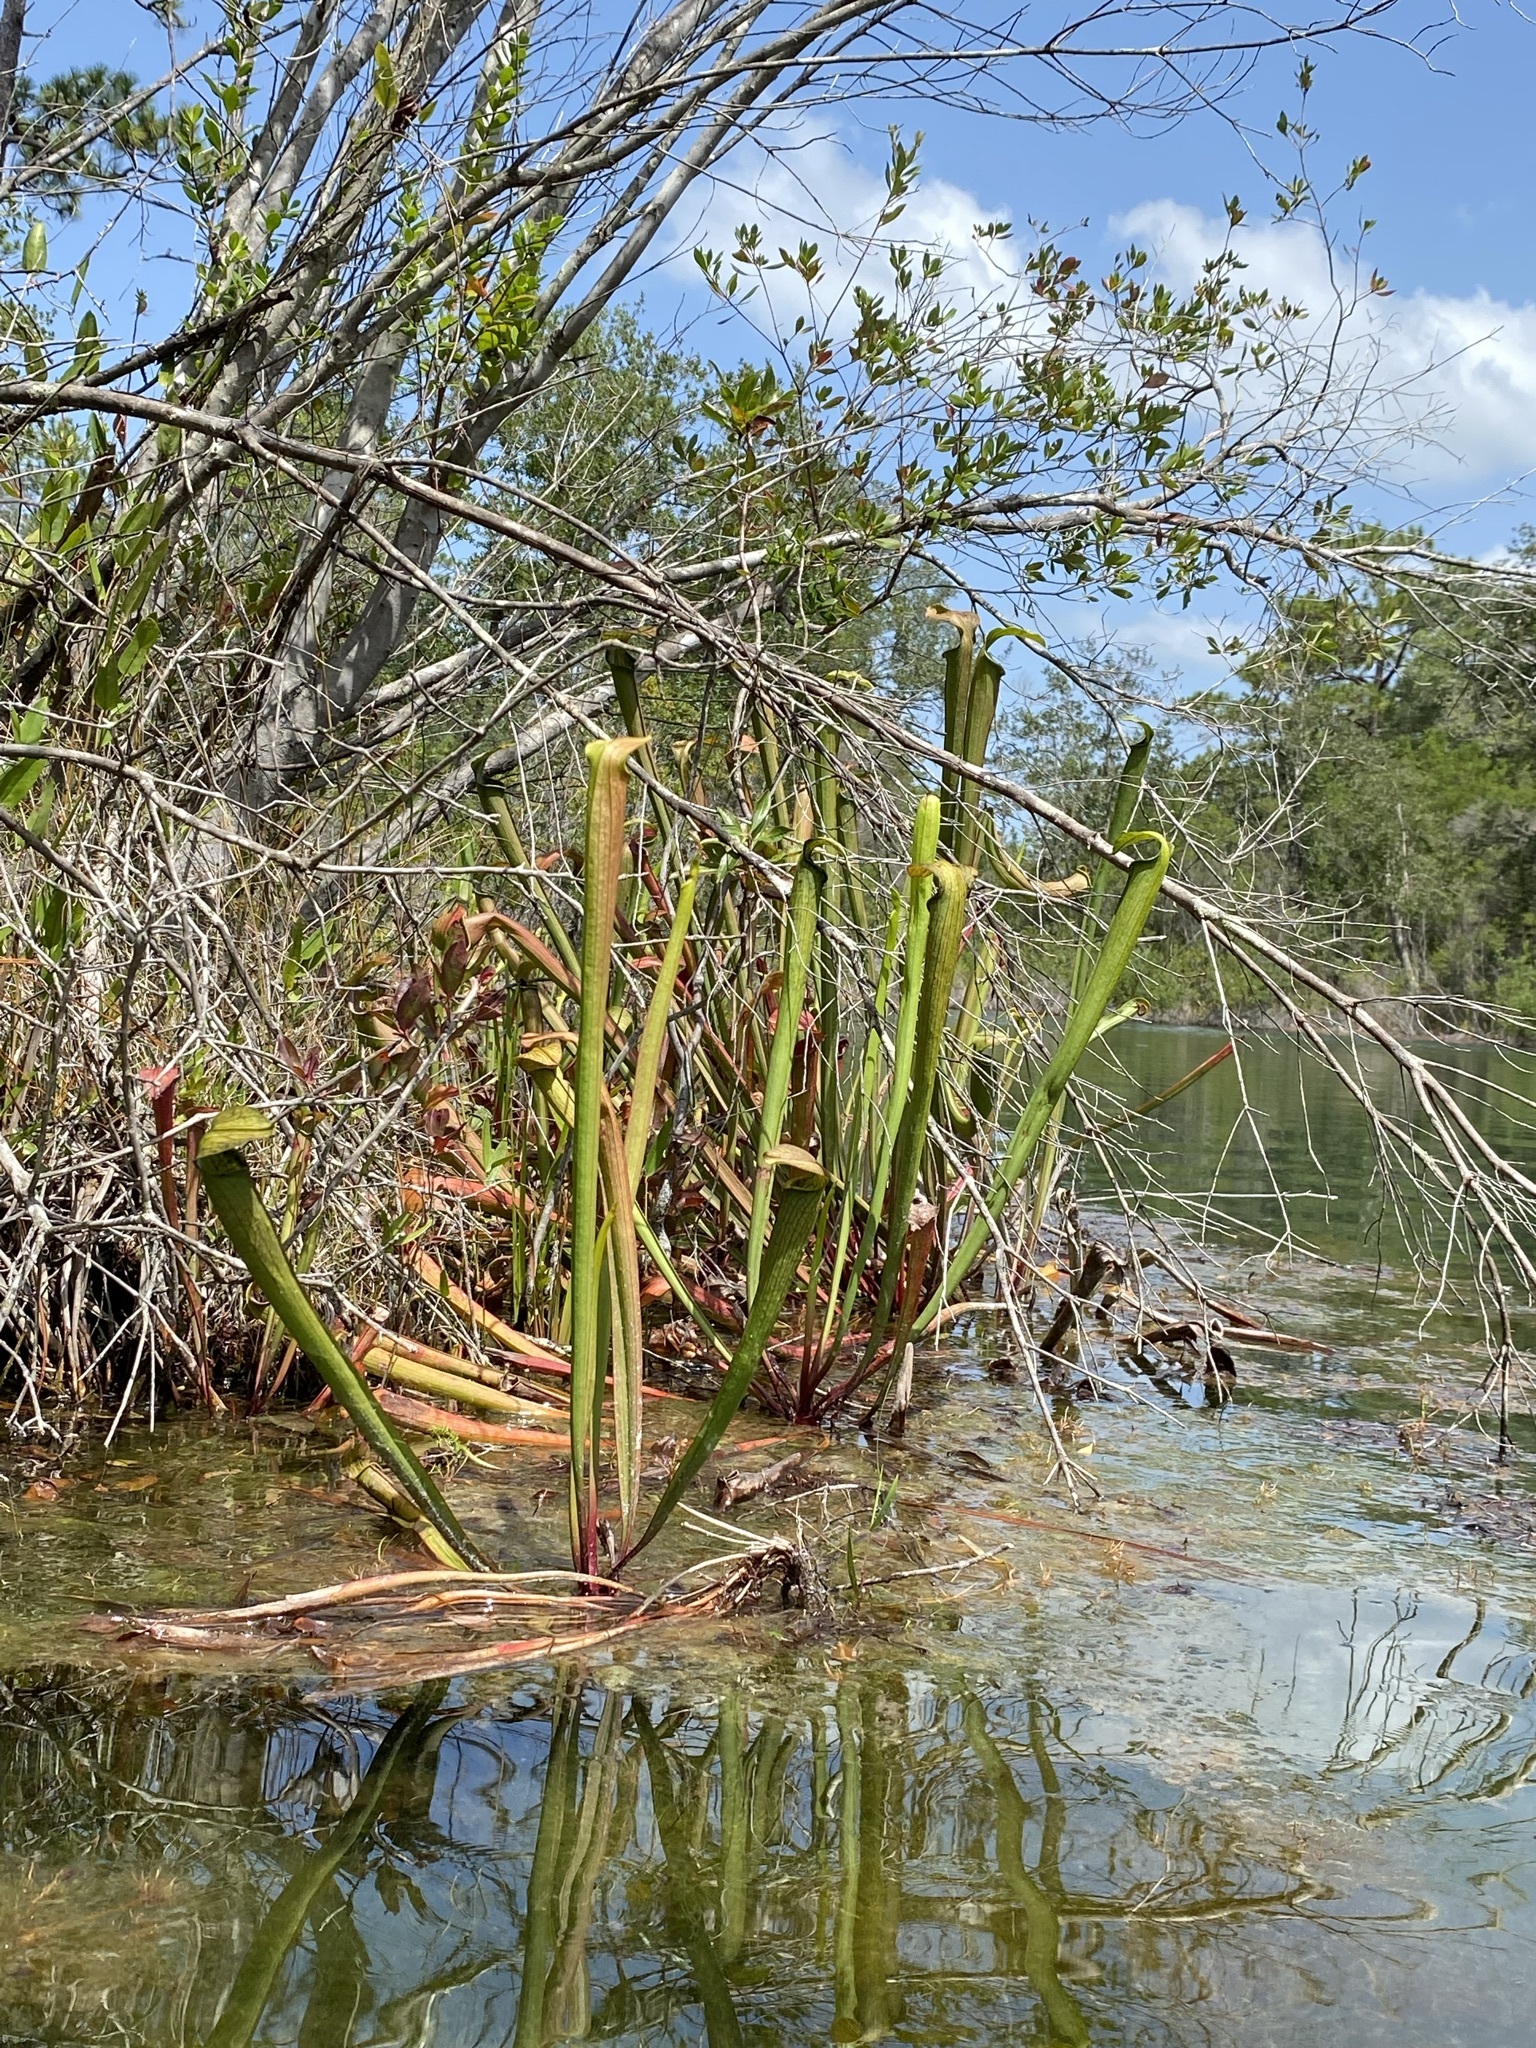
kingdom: Plantae
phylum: Tracheophyta
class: Magnoliopsida
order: Ericales
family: Sarraceniaceae
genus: Sarracenia
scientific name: Sarracenia rubra
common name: Sweet pitcherplant
